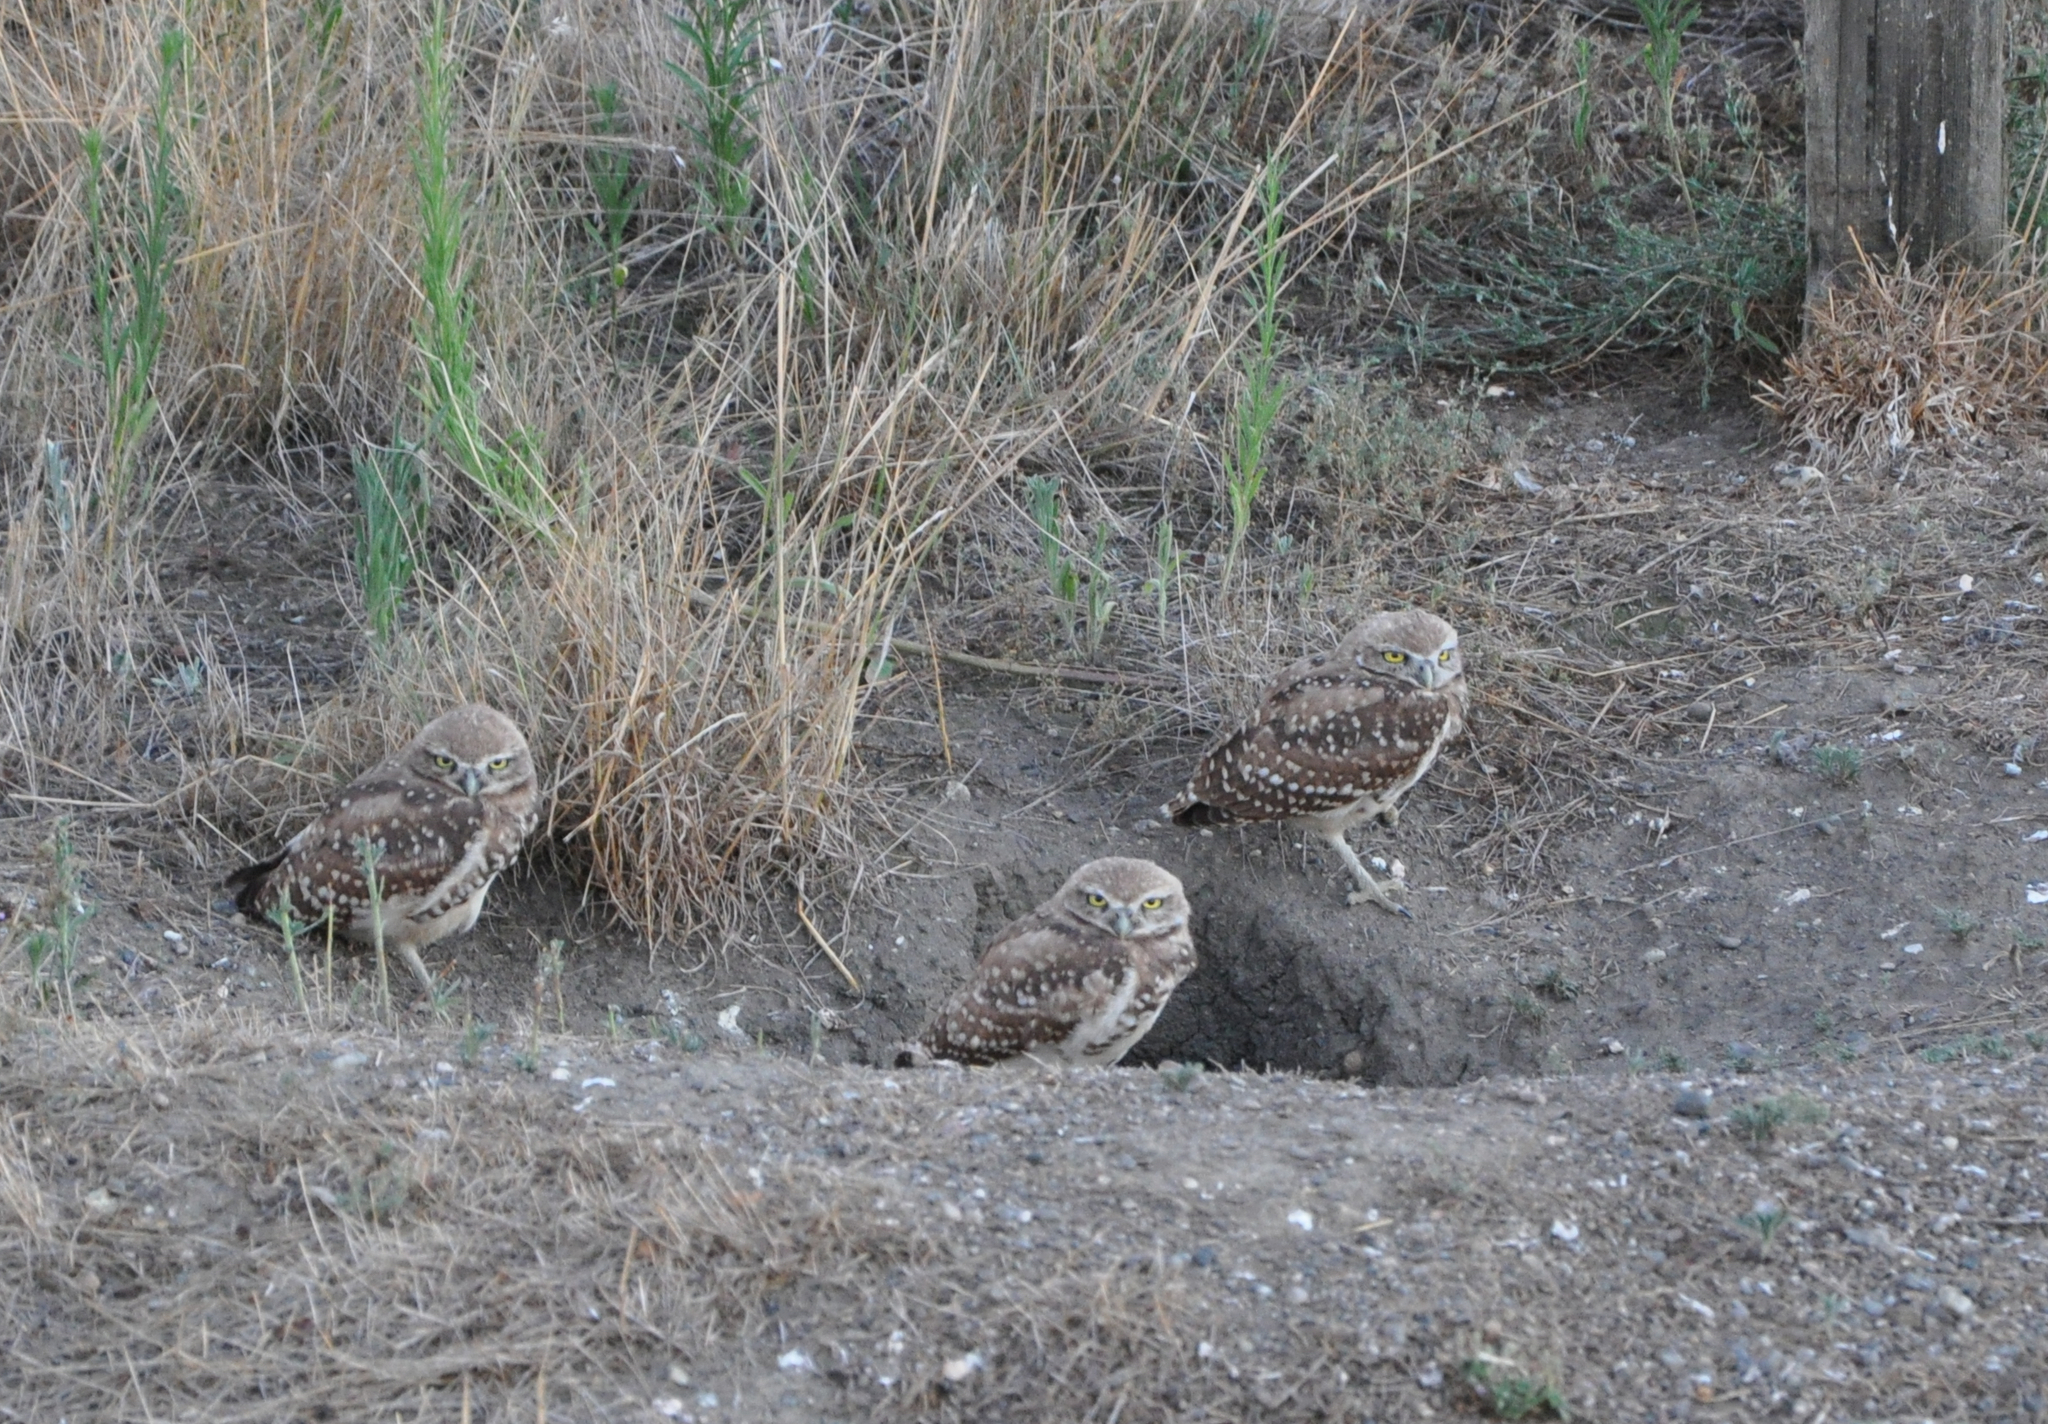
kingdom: Animalia
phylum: Chordata
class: Aves
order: Strigiformes
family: Strigidae
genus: Athene
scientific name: Athene cunicularia
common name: Burrowing owl
